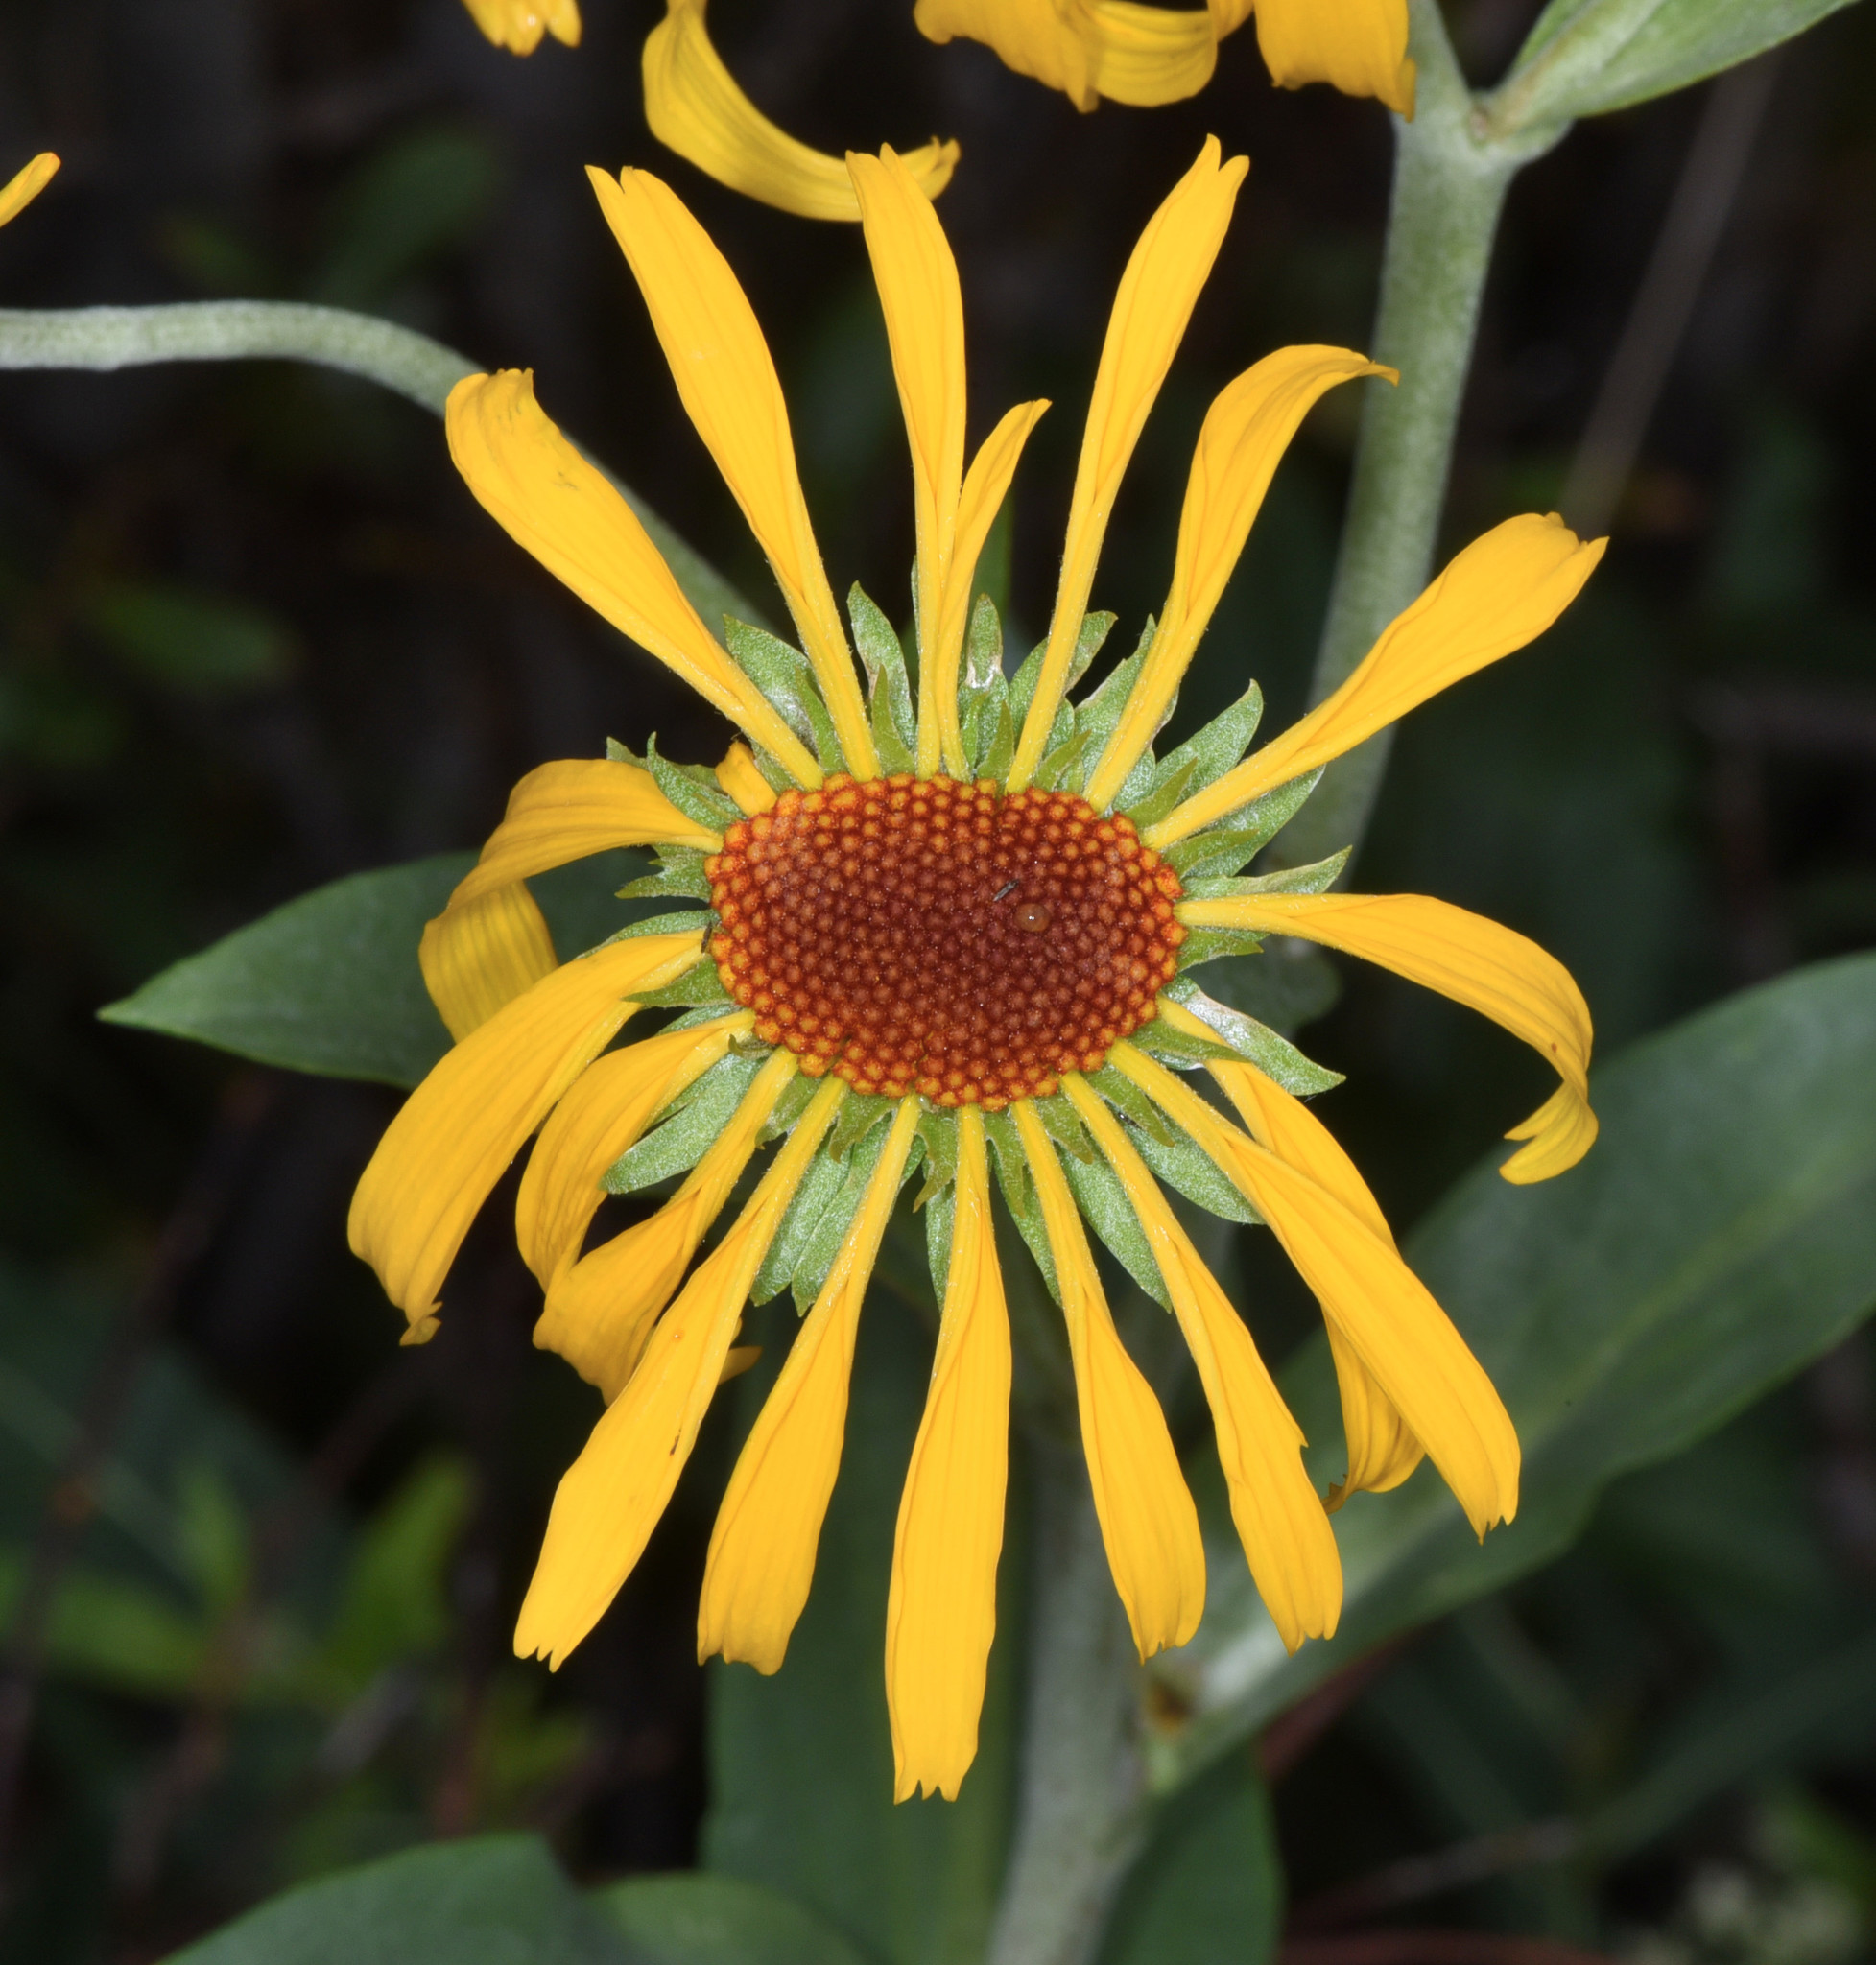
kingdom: Plantae
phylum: Tracheophyta
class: Magnoliopsida
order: Asterales
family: Asteraceae
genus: Hymenoxys
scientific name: Hymenoxys hoopesii
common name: Orange-sneezeweed
